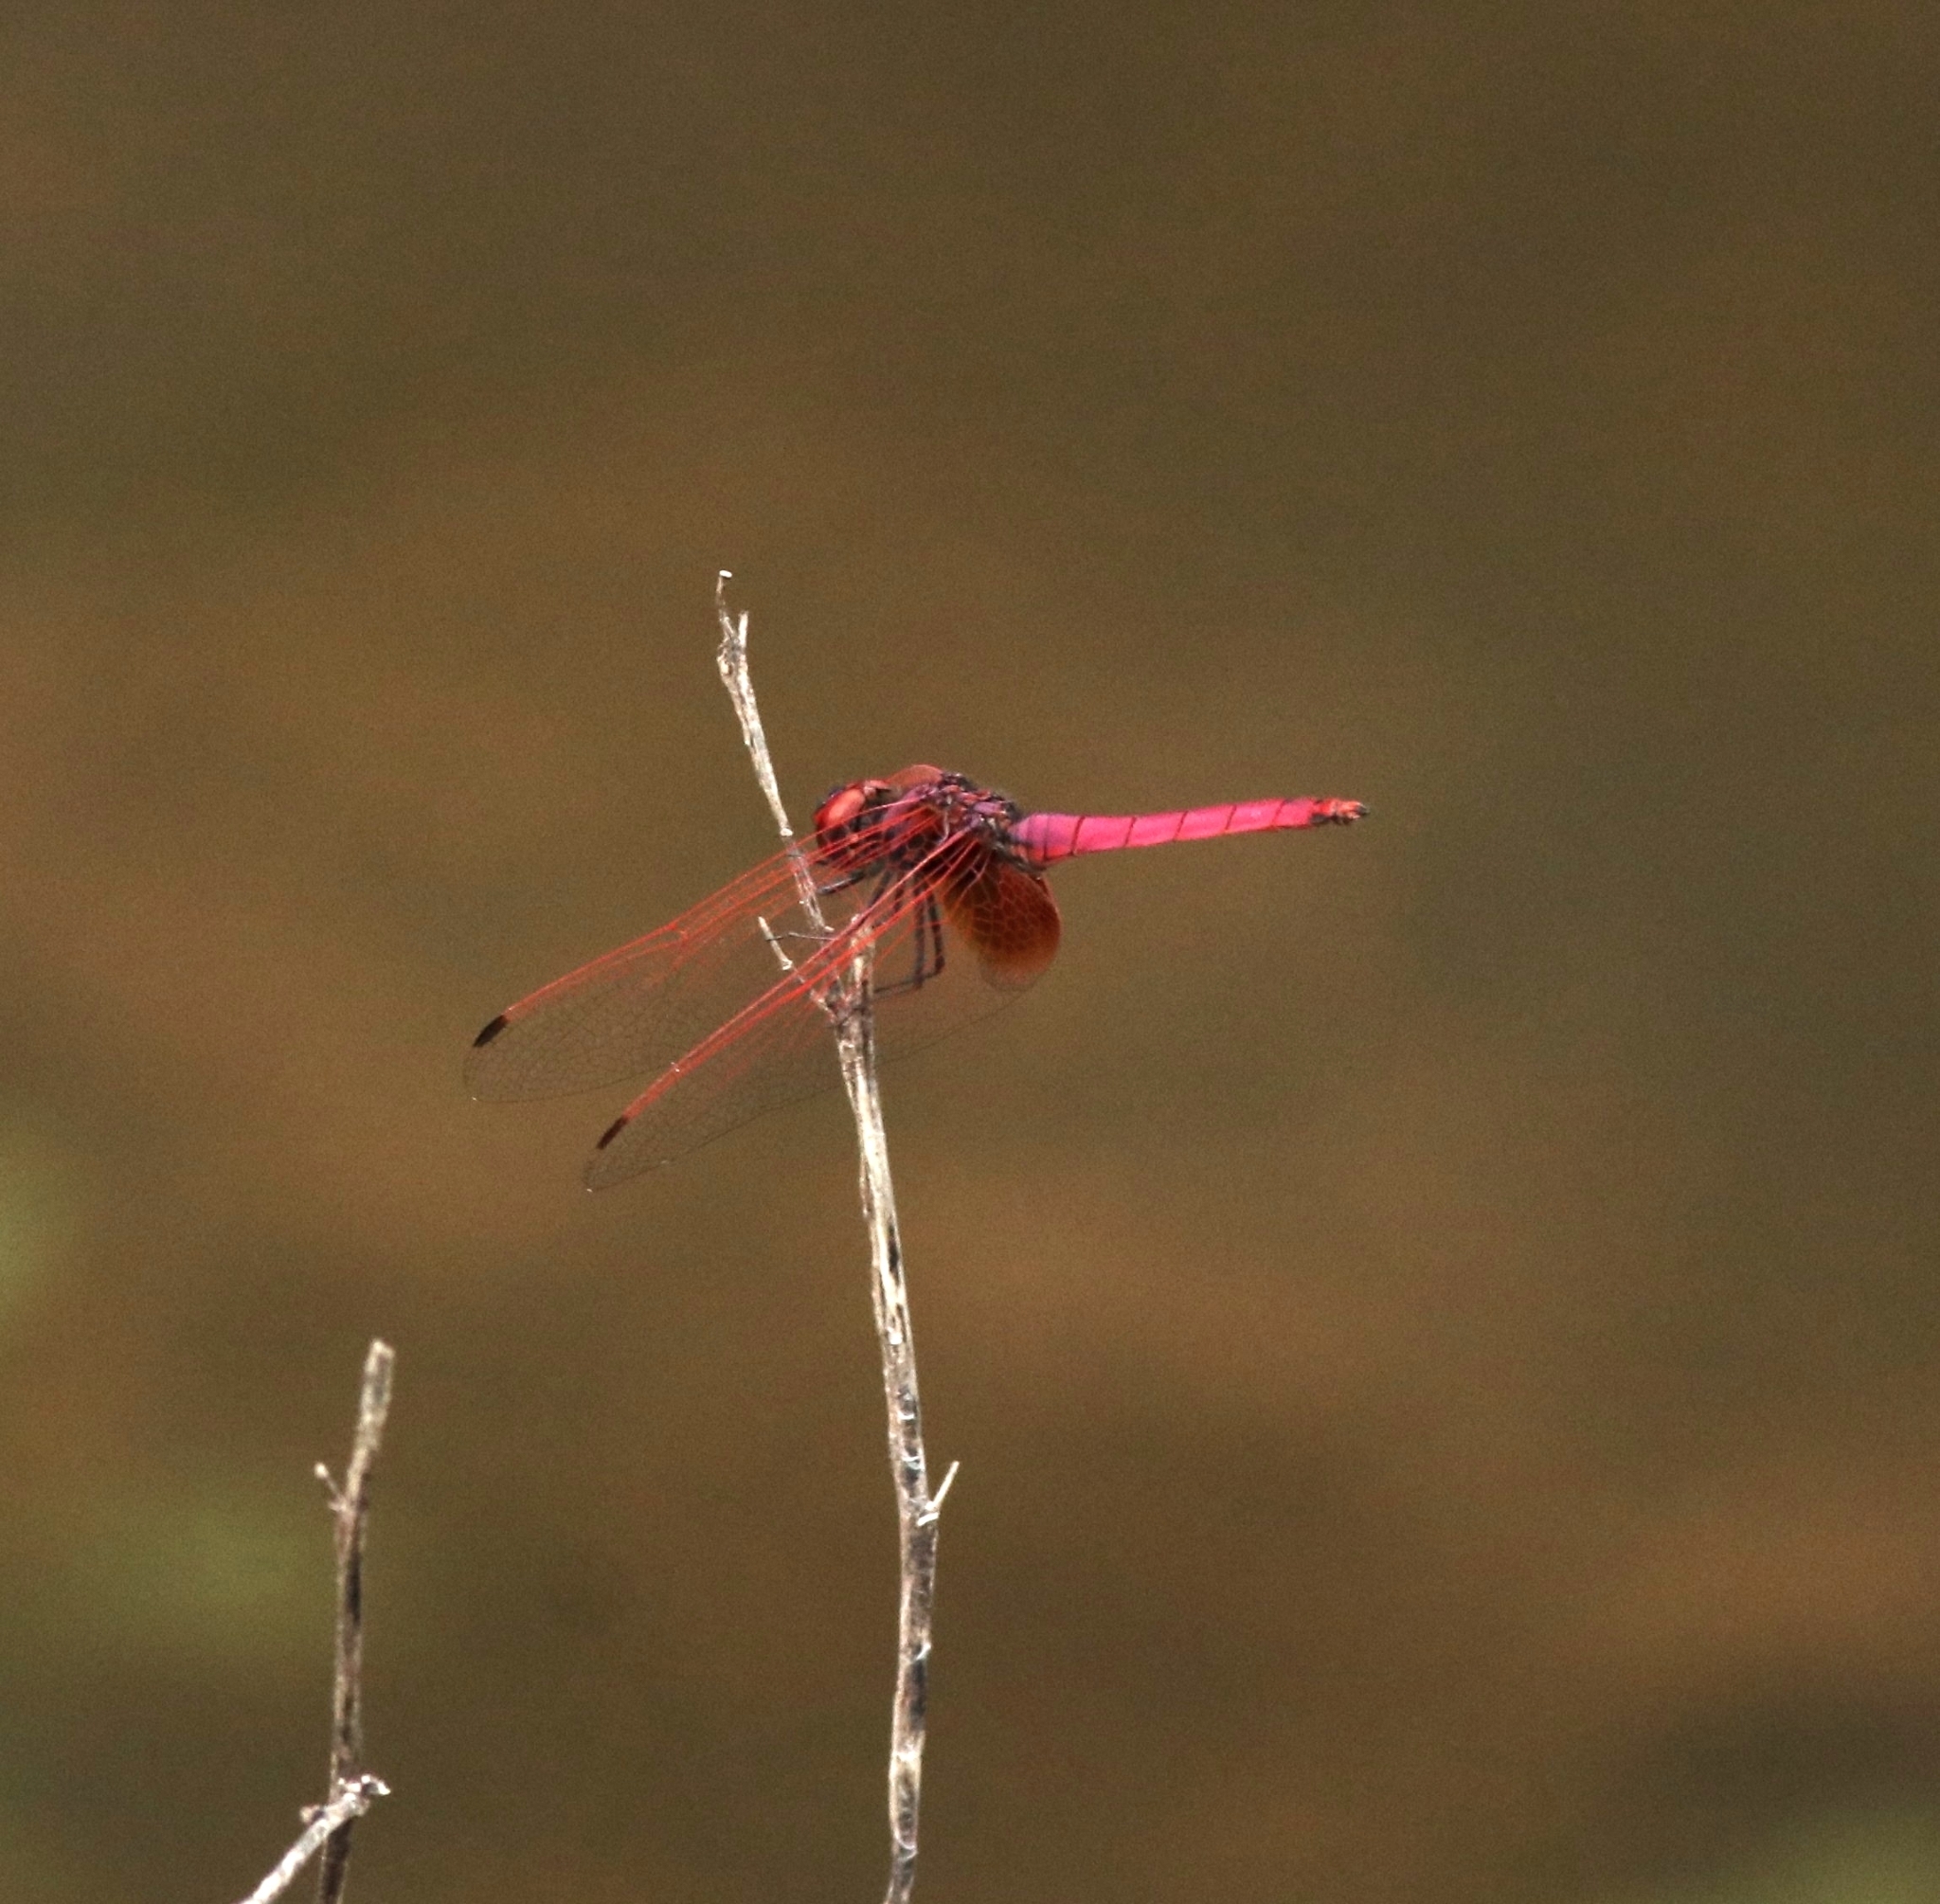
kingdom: Animalia
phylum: Arthropoda
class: Insecta
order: Odonata
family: Libellulidae
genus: Trithemis
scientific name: Trithemis aurora
